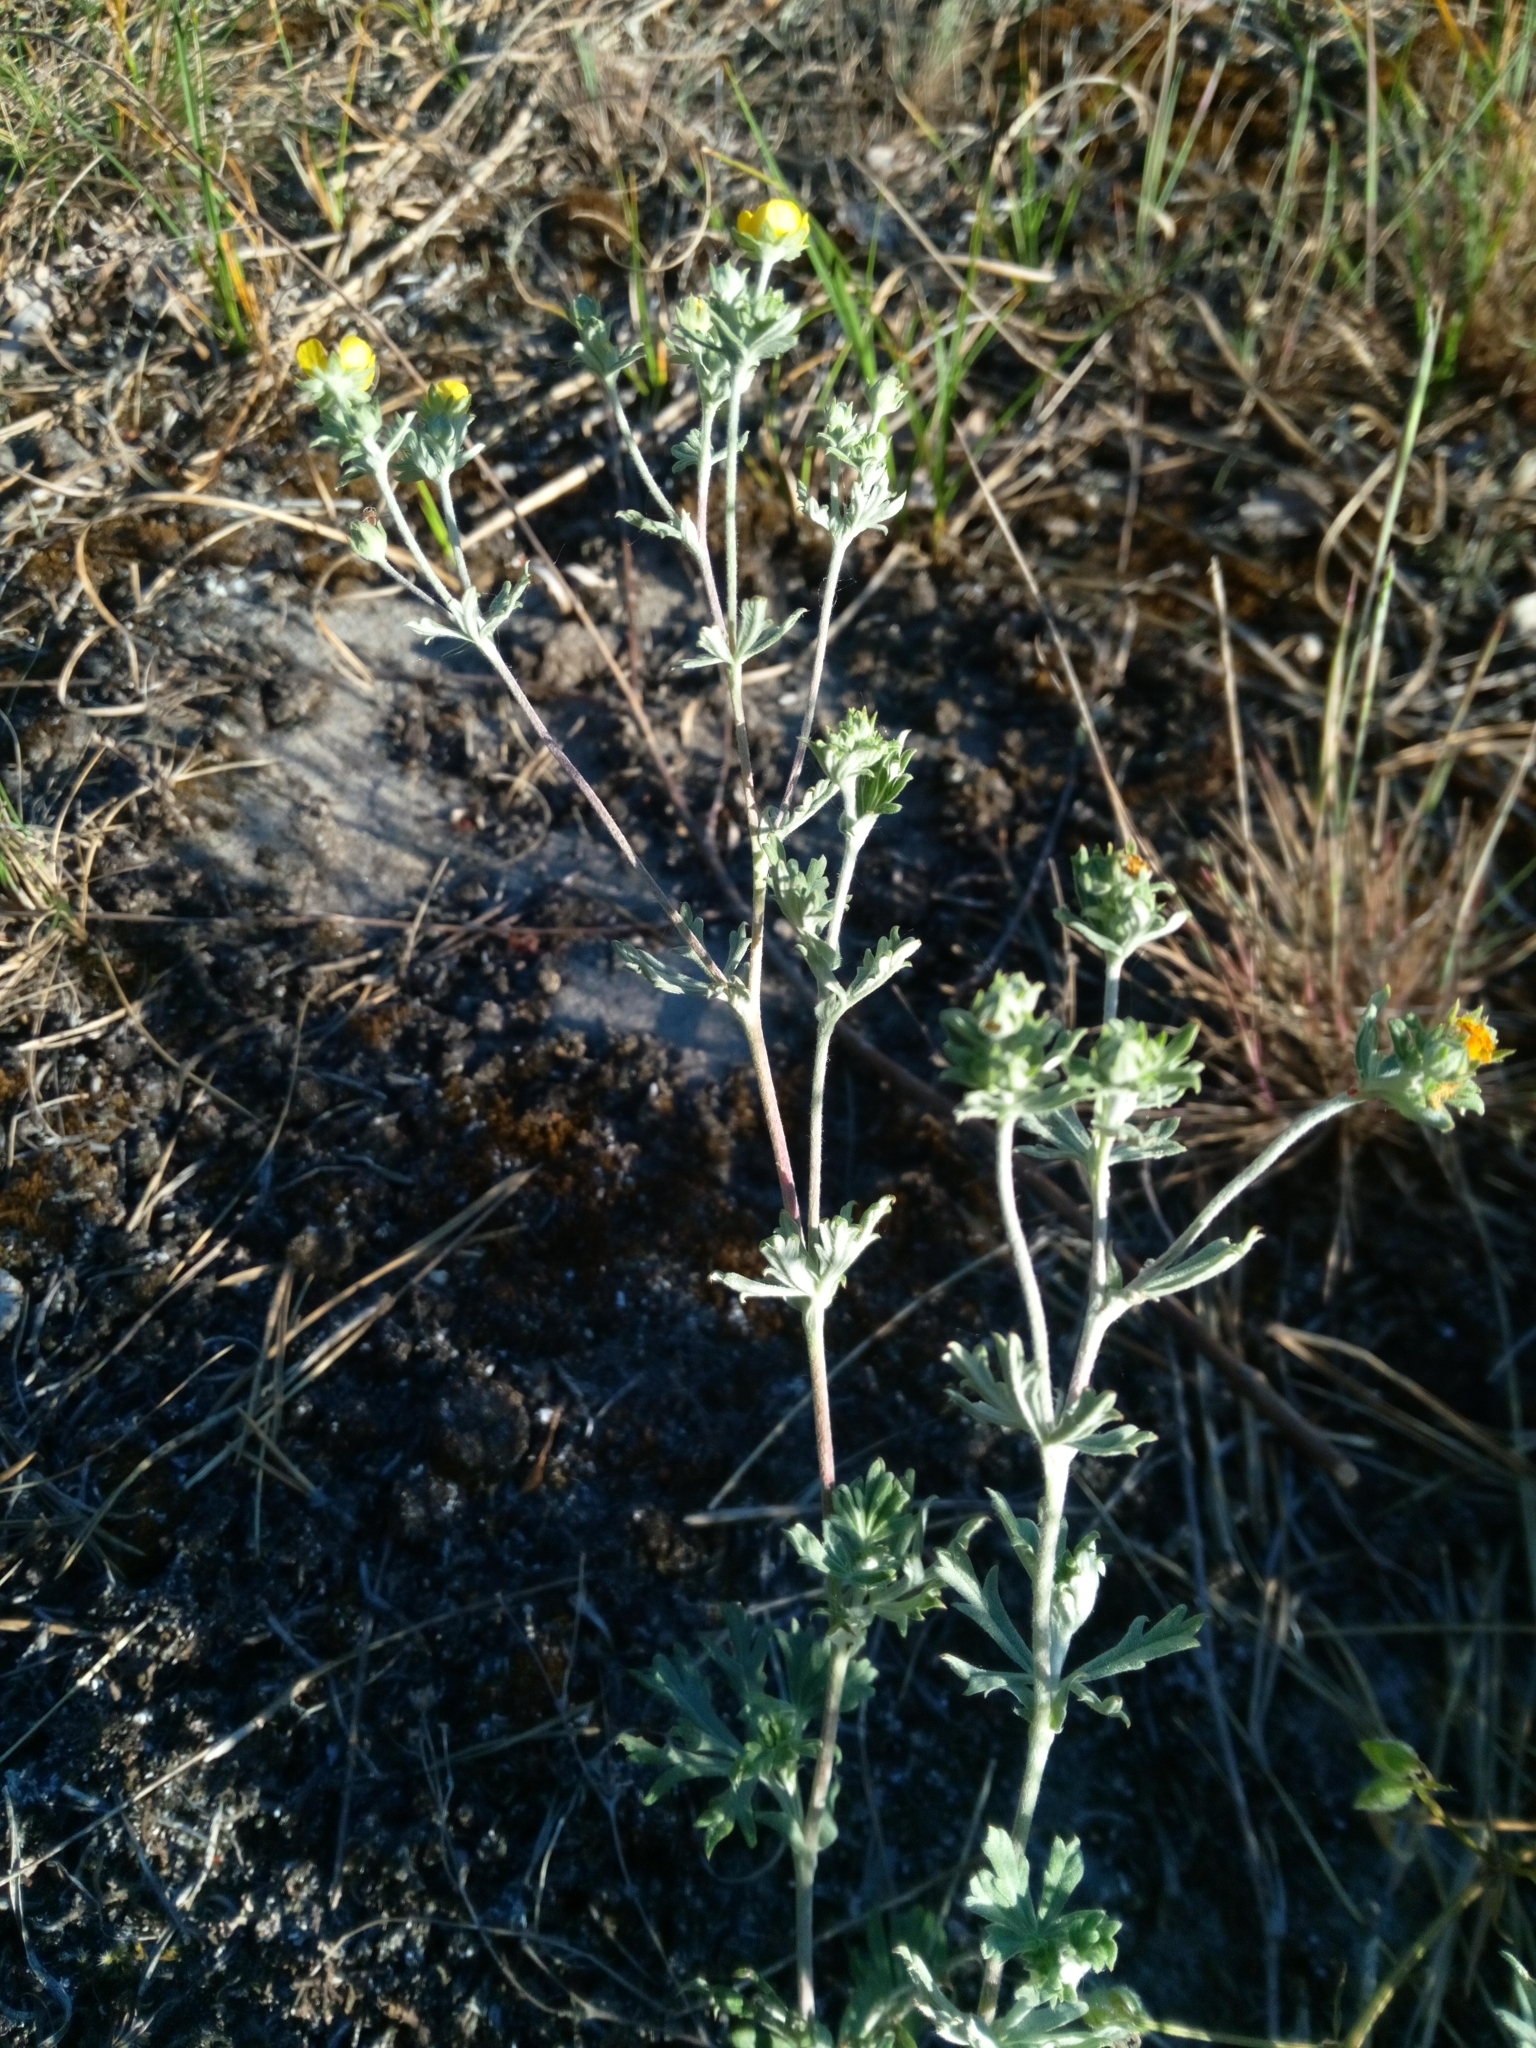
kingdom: Plantae
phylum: Tracheophyta
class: Magnoliopsida
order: Rosales
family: Rosaceae
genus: Potentilla
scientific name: Potentilla argentea
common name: Hoary cinquefoil
